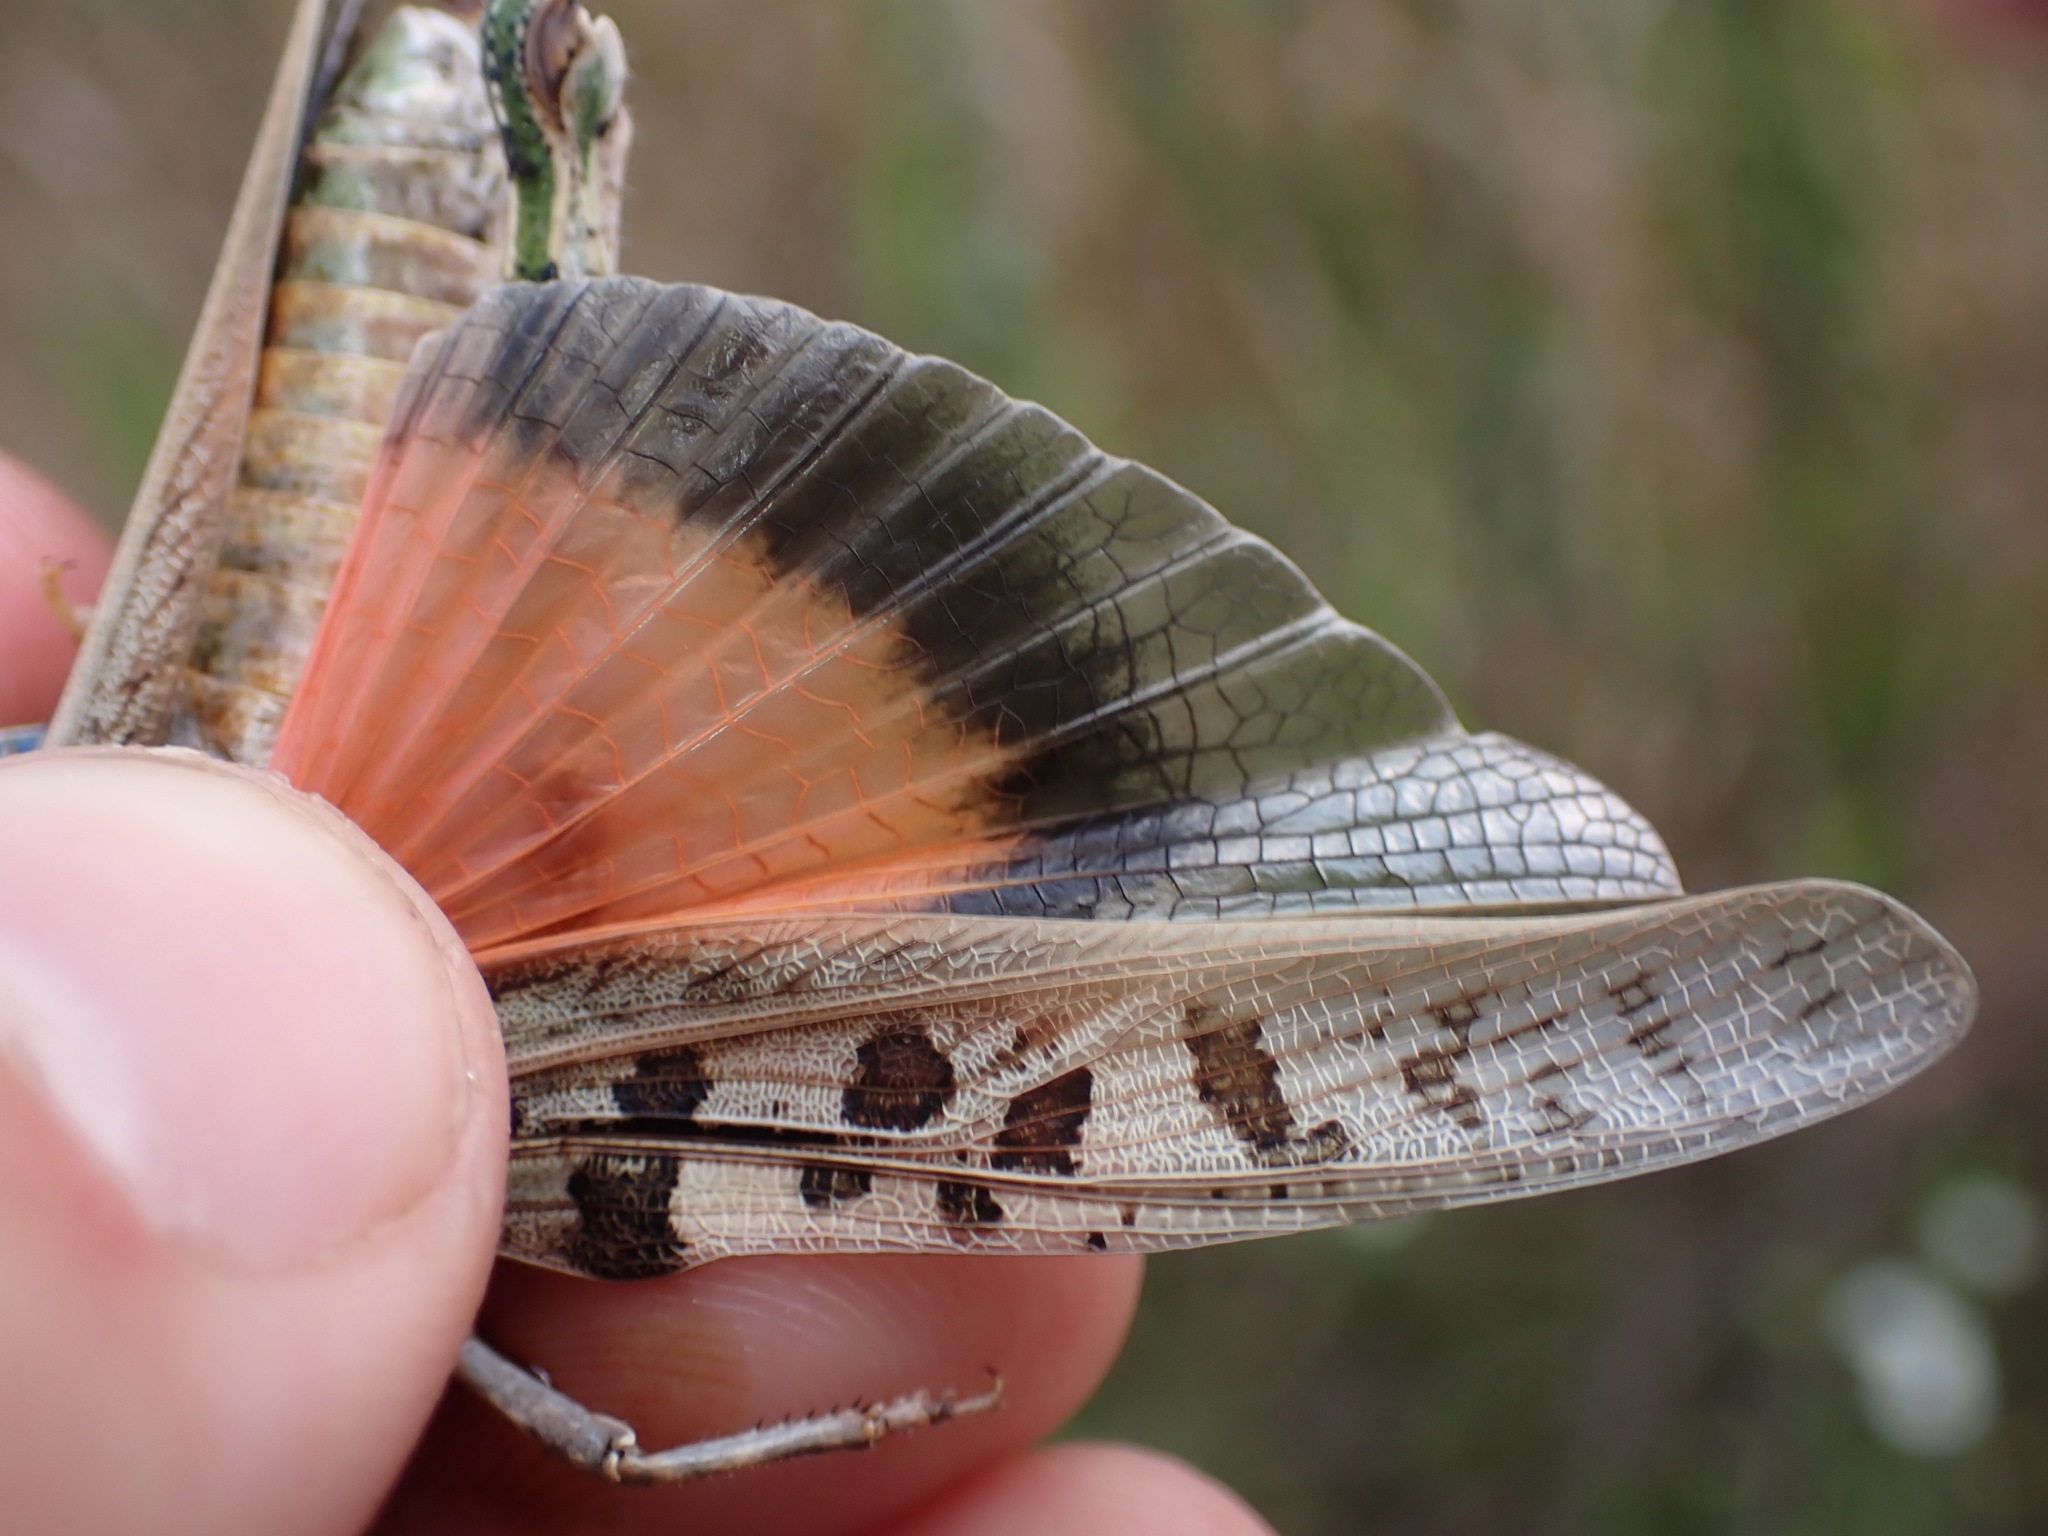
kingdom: Animalia
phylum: Arthropoda
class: Insecta
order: Orthoptera
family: Acrididae
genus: Pardalophora
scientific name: Pardalophora phoenicoptera
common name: Orange-winged grasshopper
